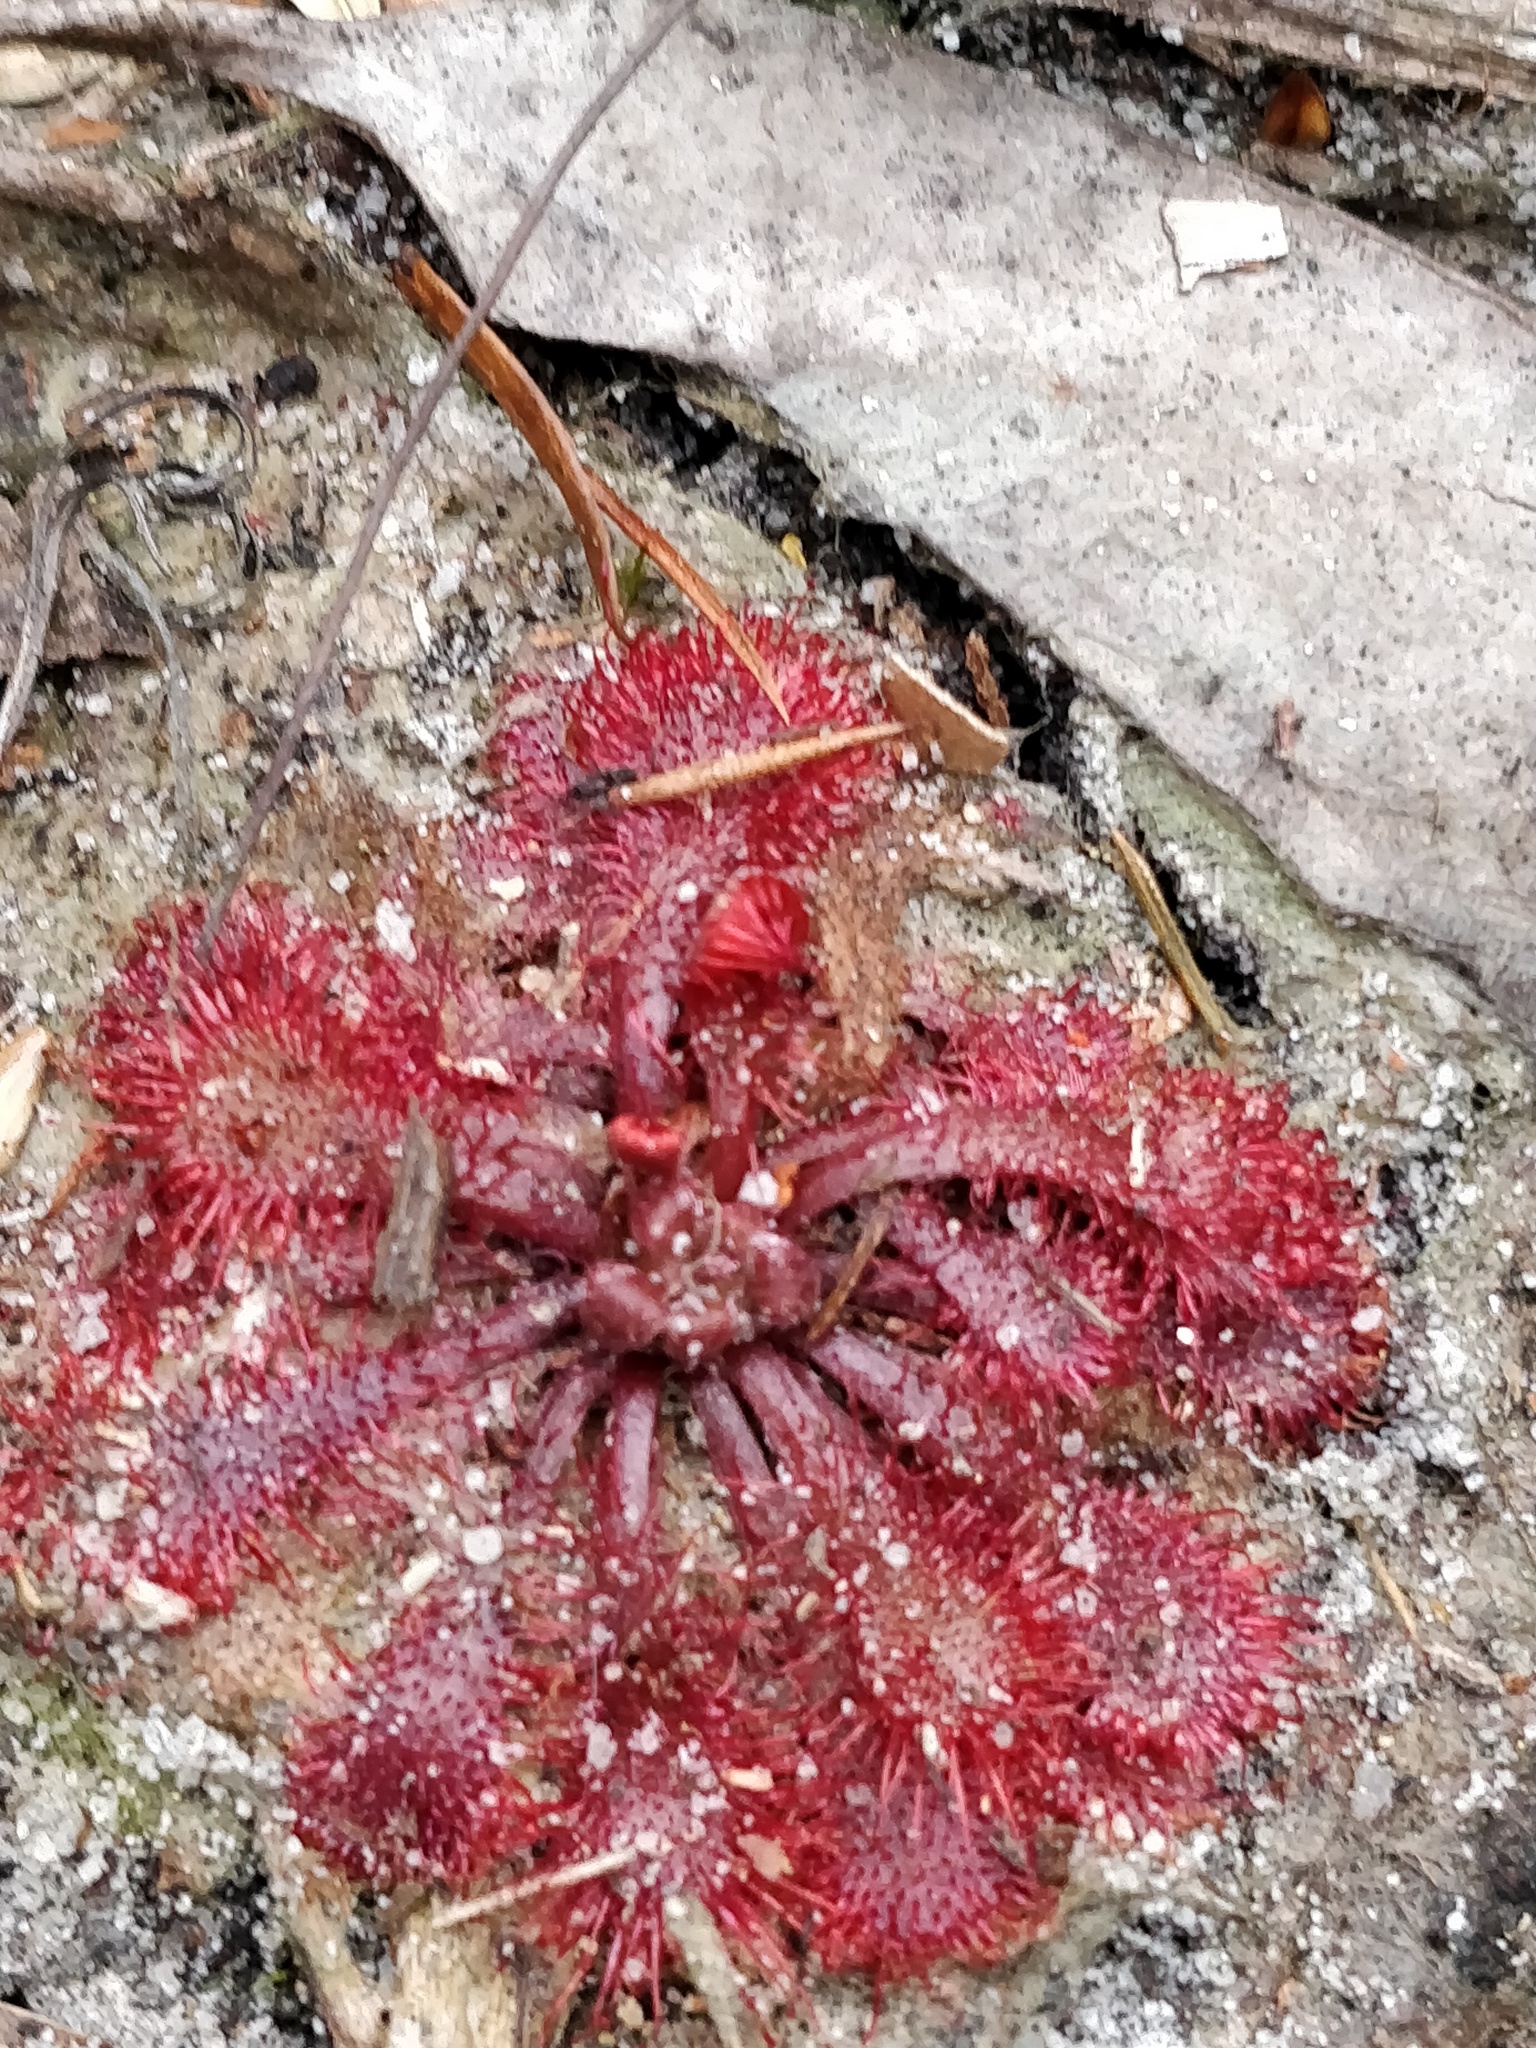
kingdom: Plantae
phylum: Tracheophyta
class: Magnoliopsida
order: Caryophyllales
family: Droseraceae
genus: Drosera
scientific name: Drosera spatulata
